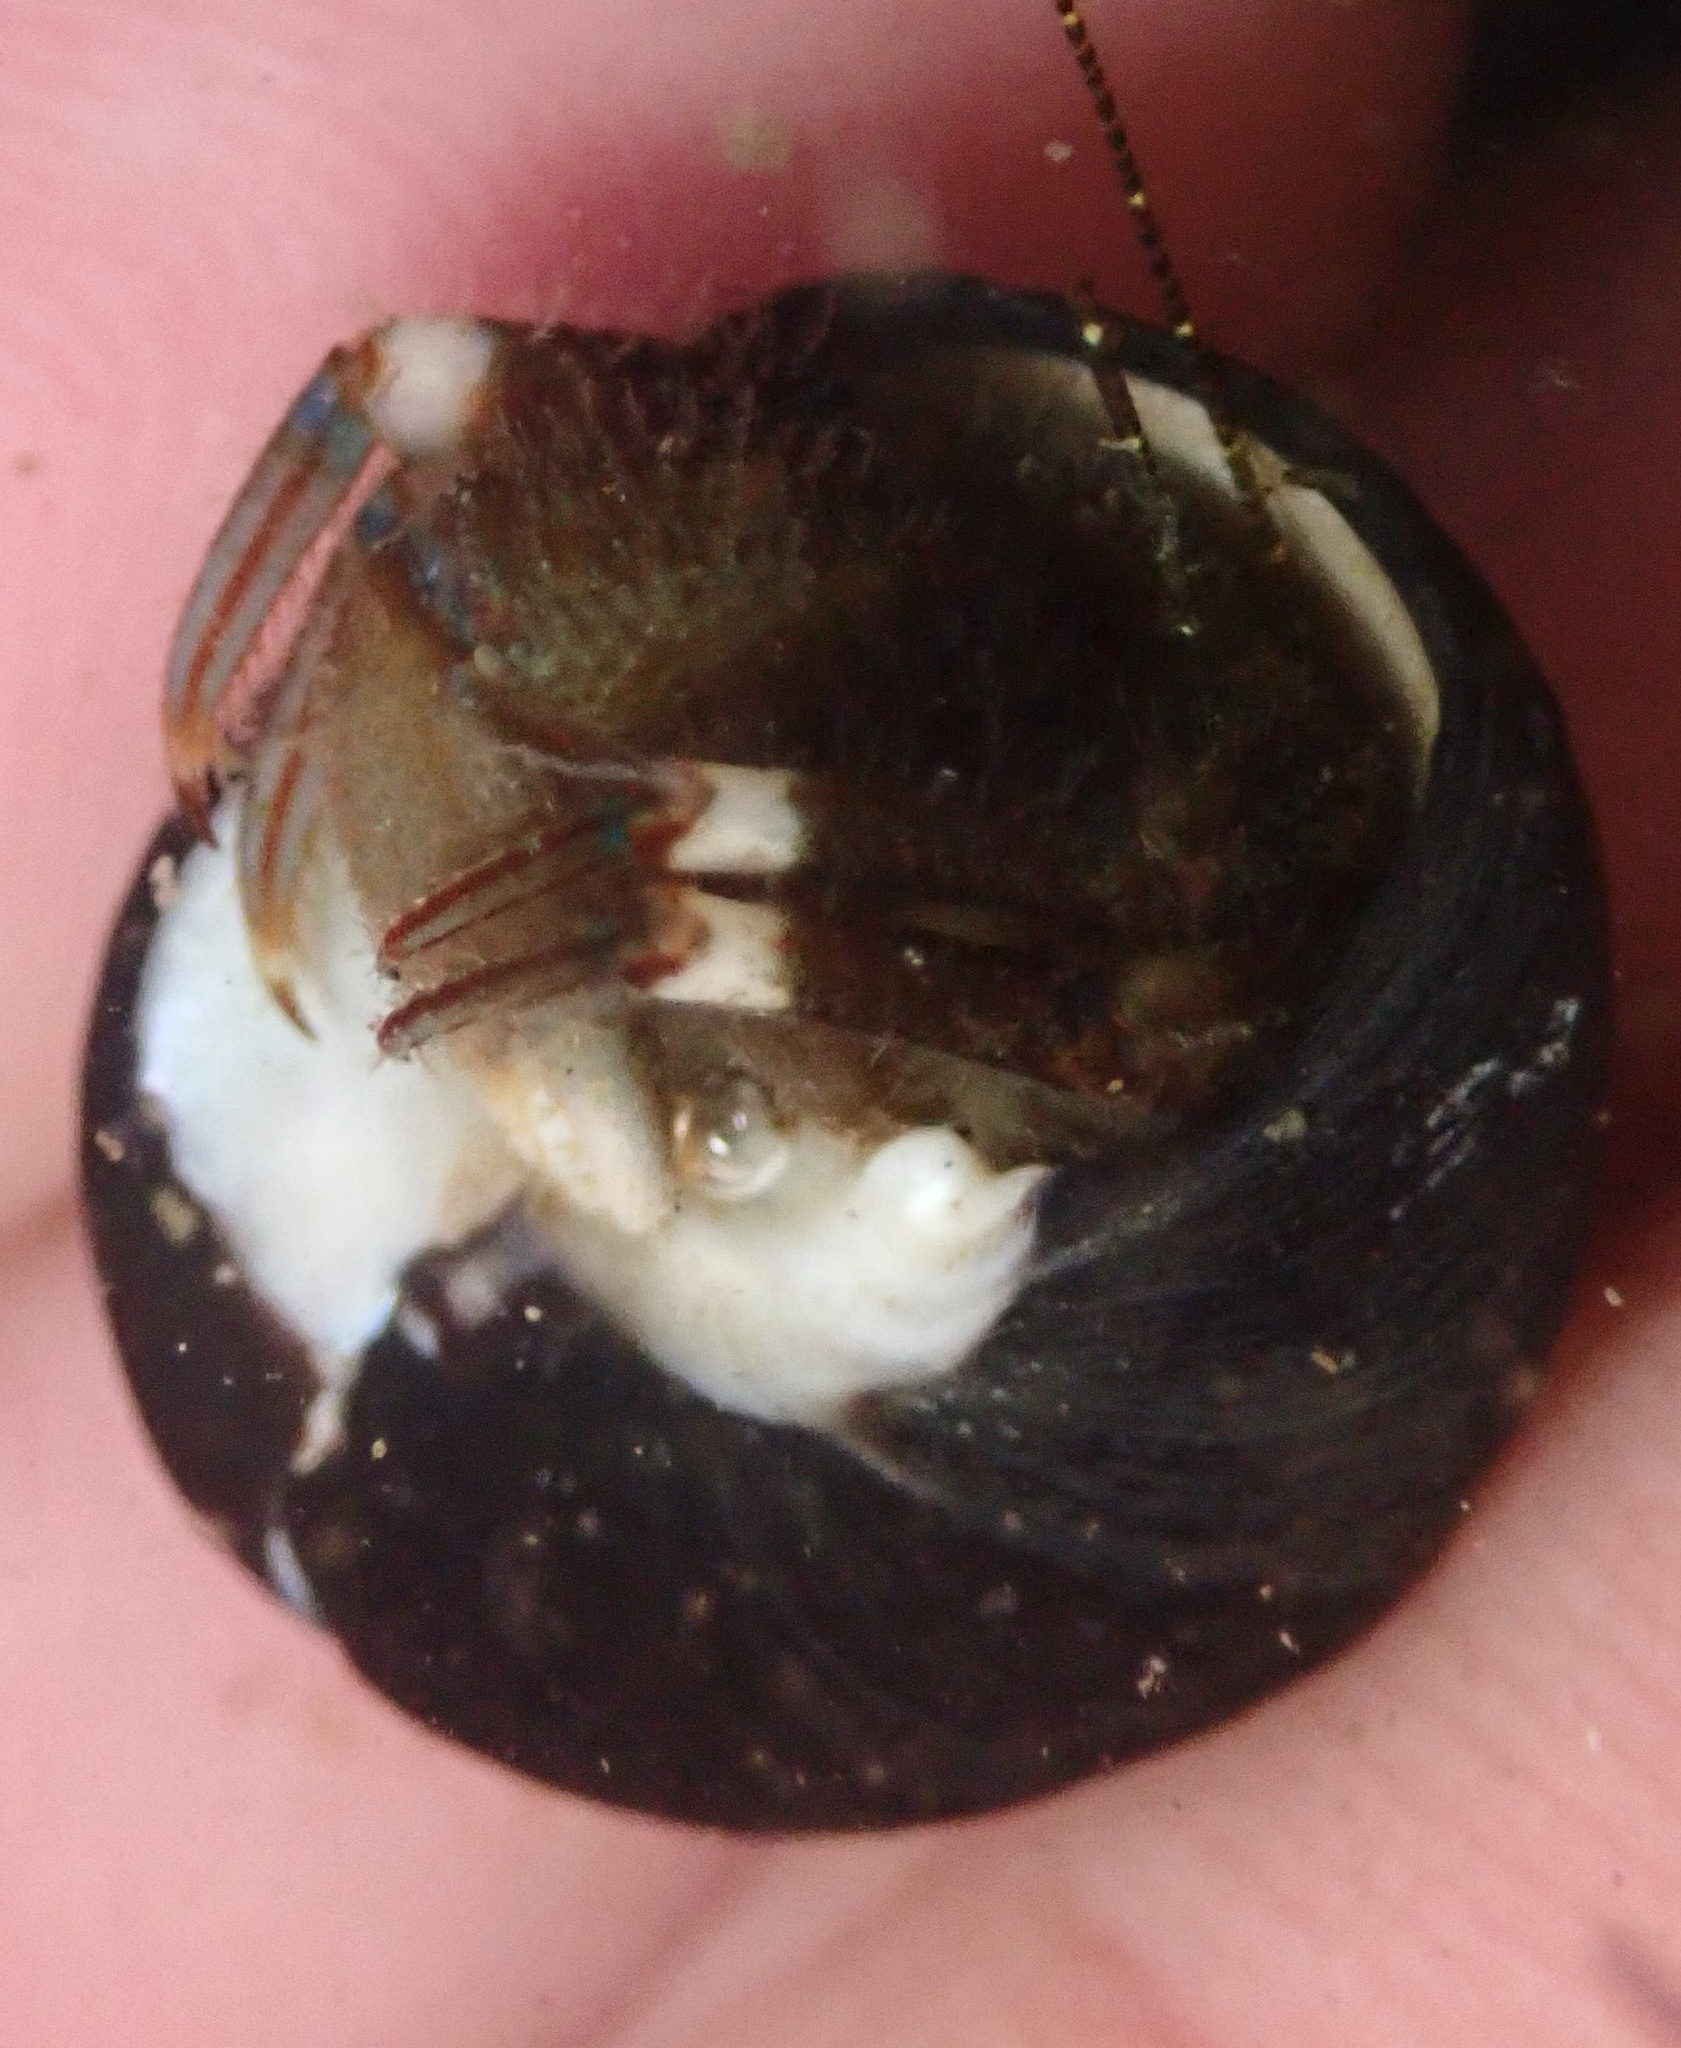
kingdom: Animalia
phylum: Arthropoda
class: Malacostraca
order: Decapoda
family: Paguridae
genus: Pagurus
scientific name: Pagurus hirsutiusculus
